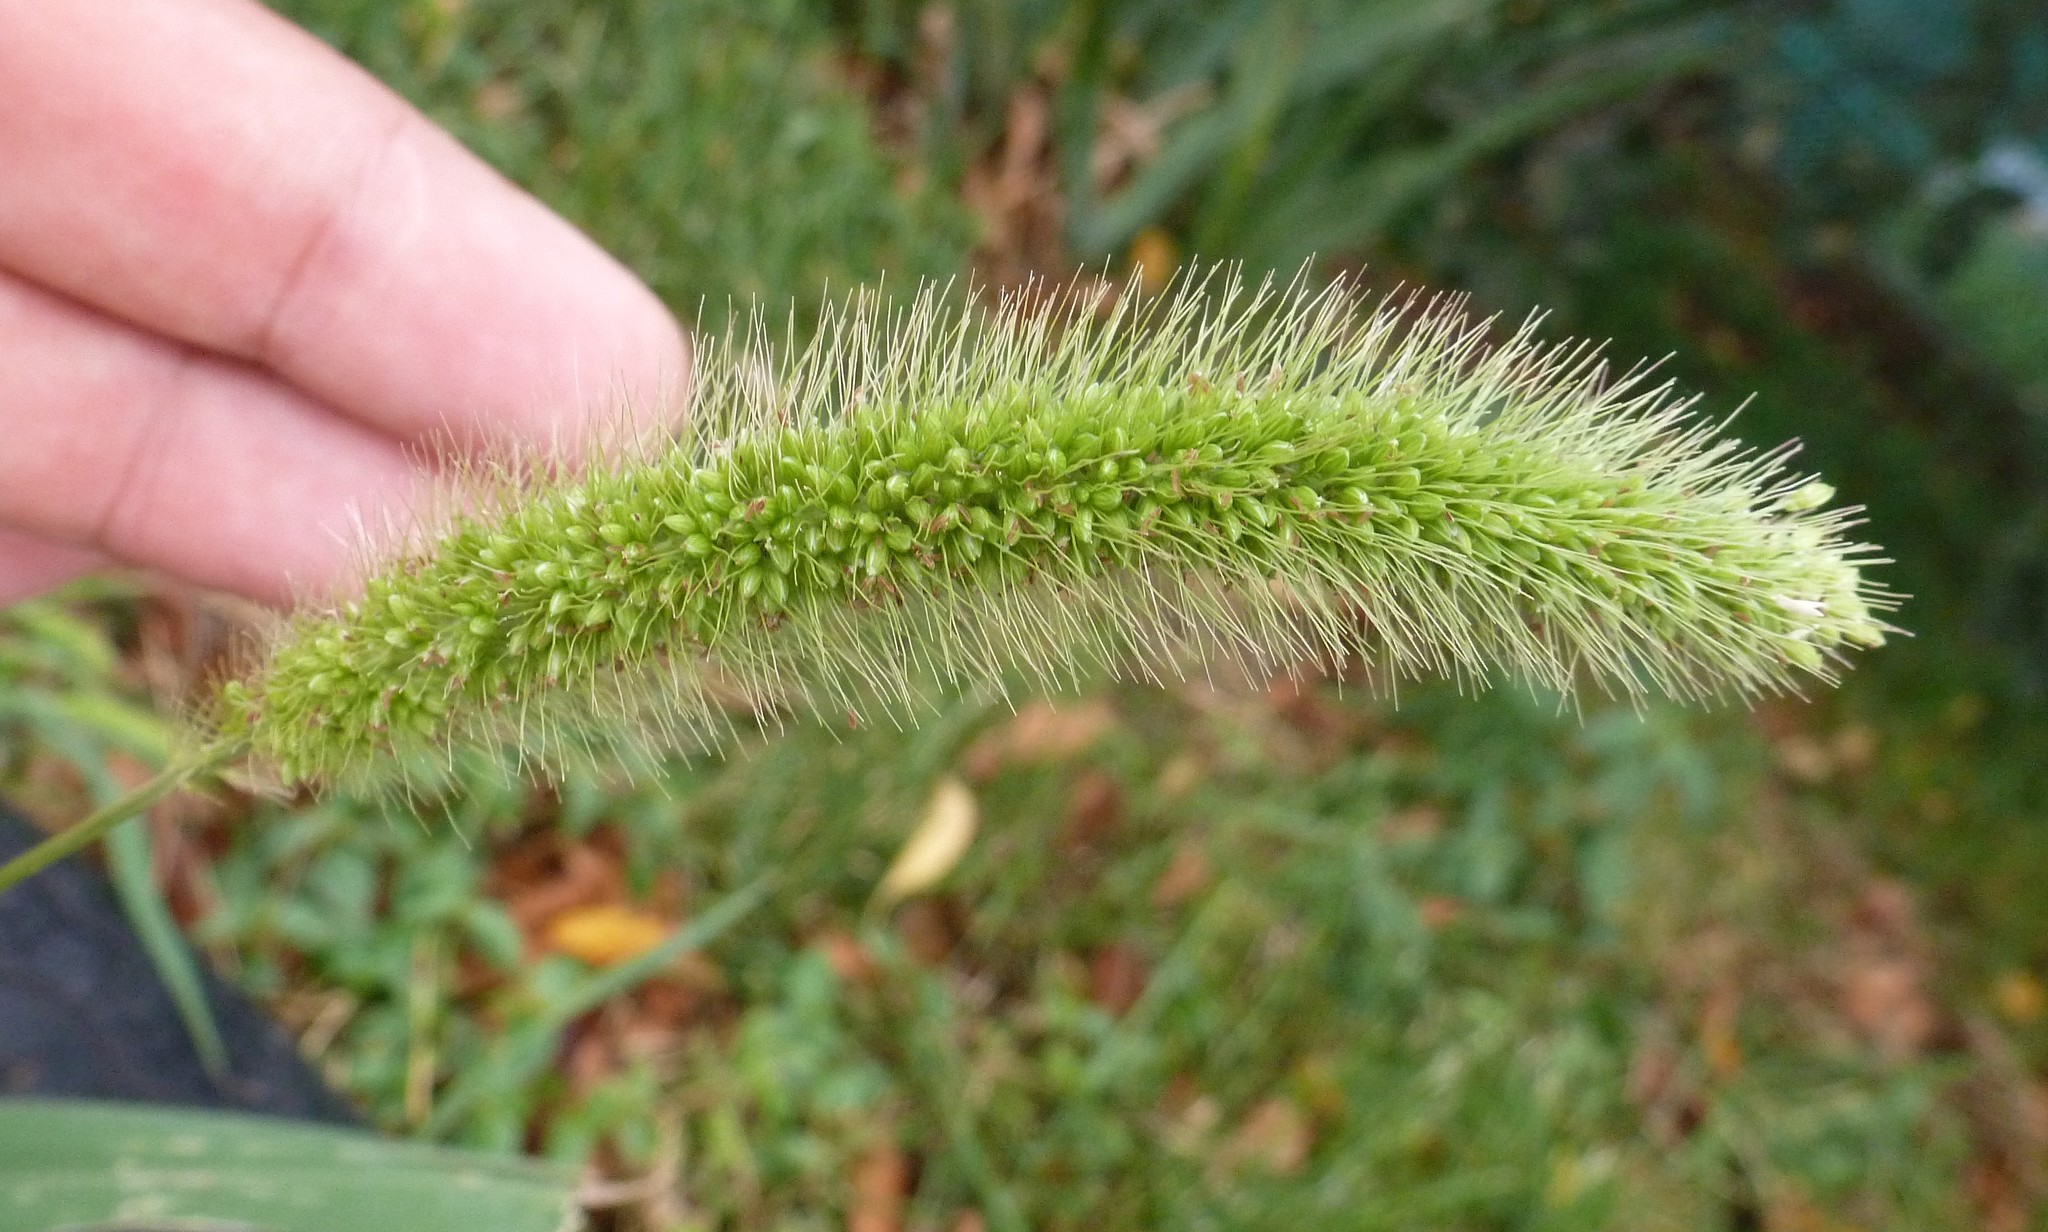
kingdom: Plantae
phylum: Tracheophyta
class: Liliopsida
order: Poales
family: Poaceae
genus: Setaria
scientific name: Setaria viridis
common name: Green bristlegrass
